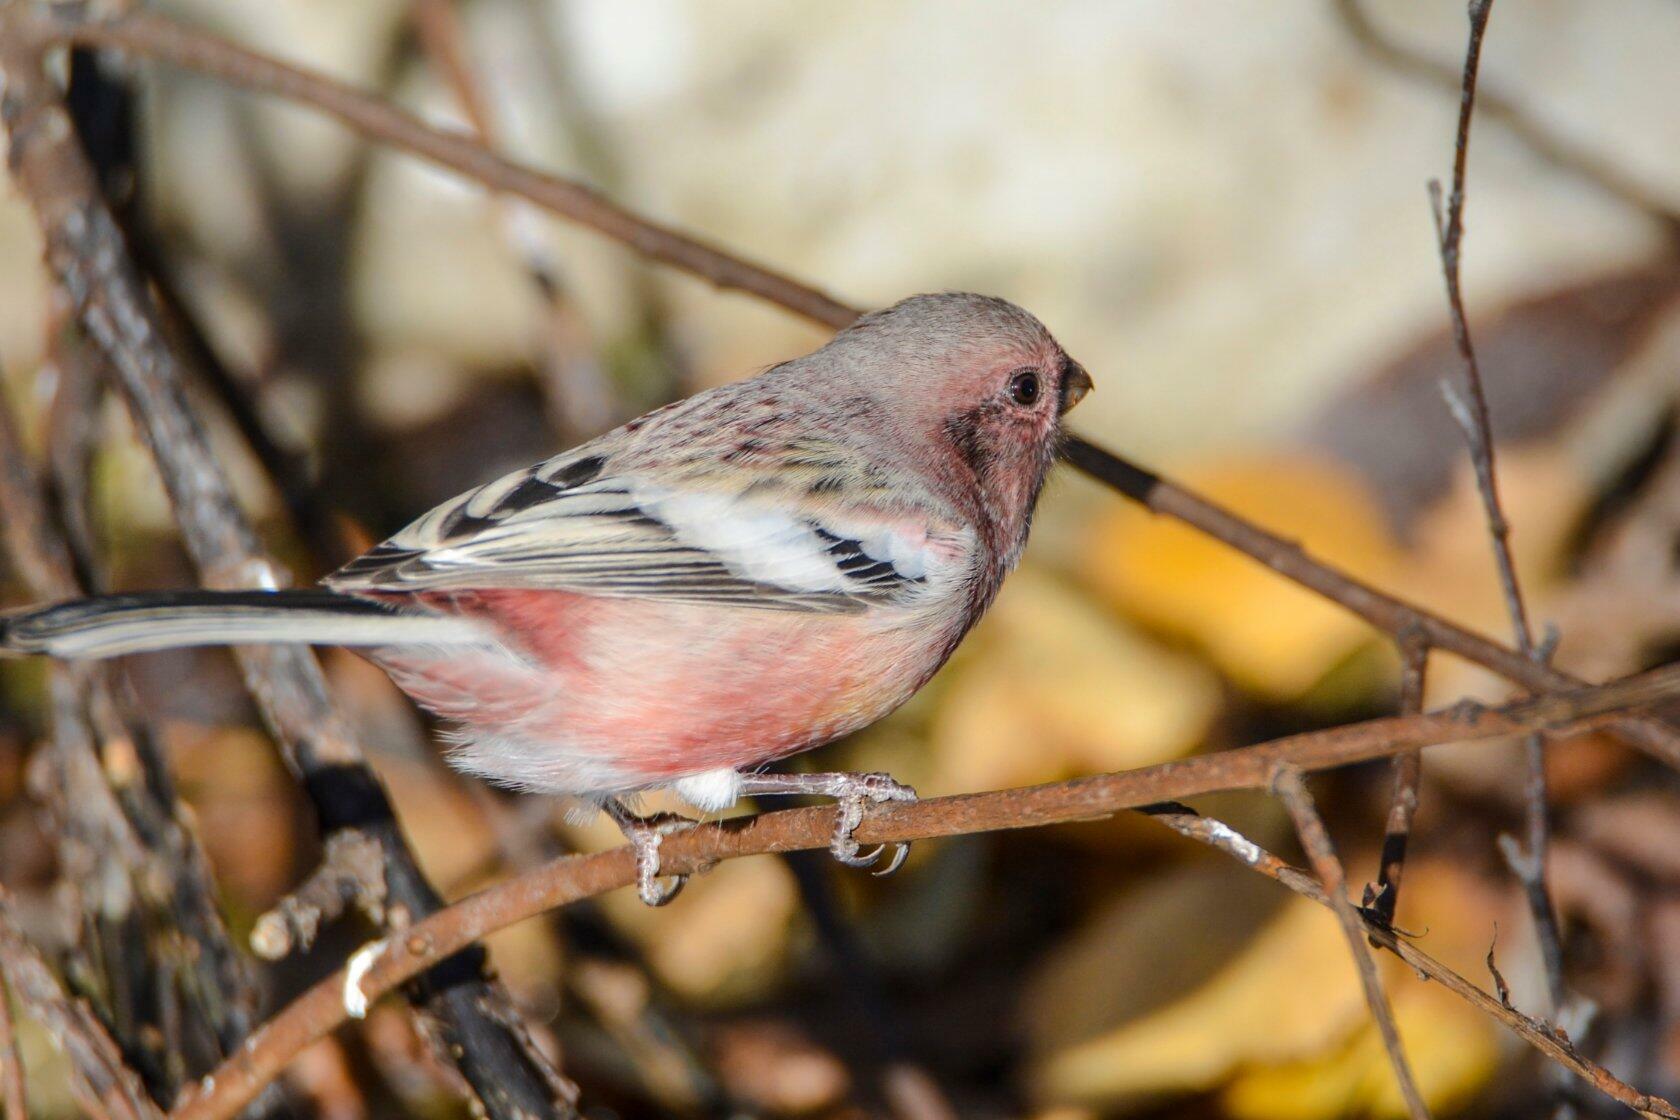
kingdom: Animalia
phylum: Chordata
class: Aves
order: Passeriformes
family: Fringillidae
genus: Carpodacus
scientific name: Carpodacus sibiricus
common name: Long-tailed rosefinch
